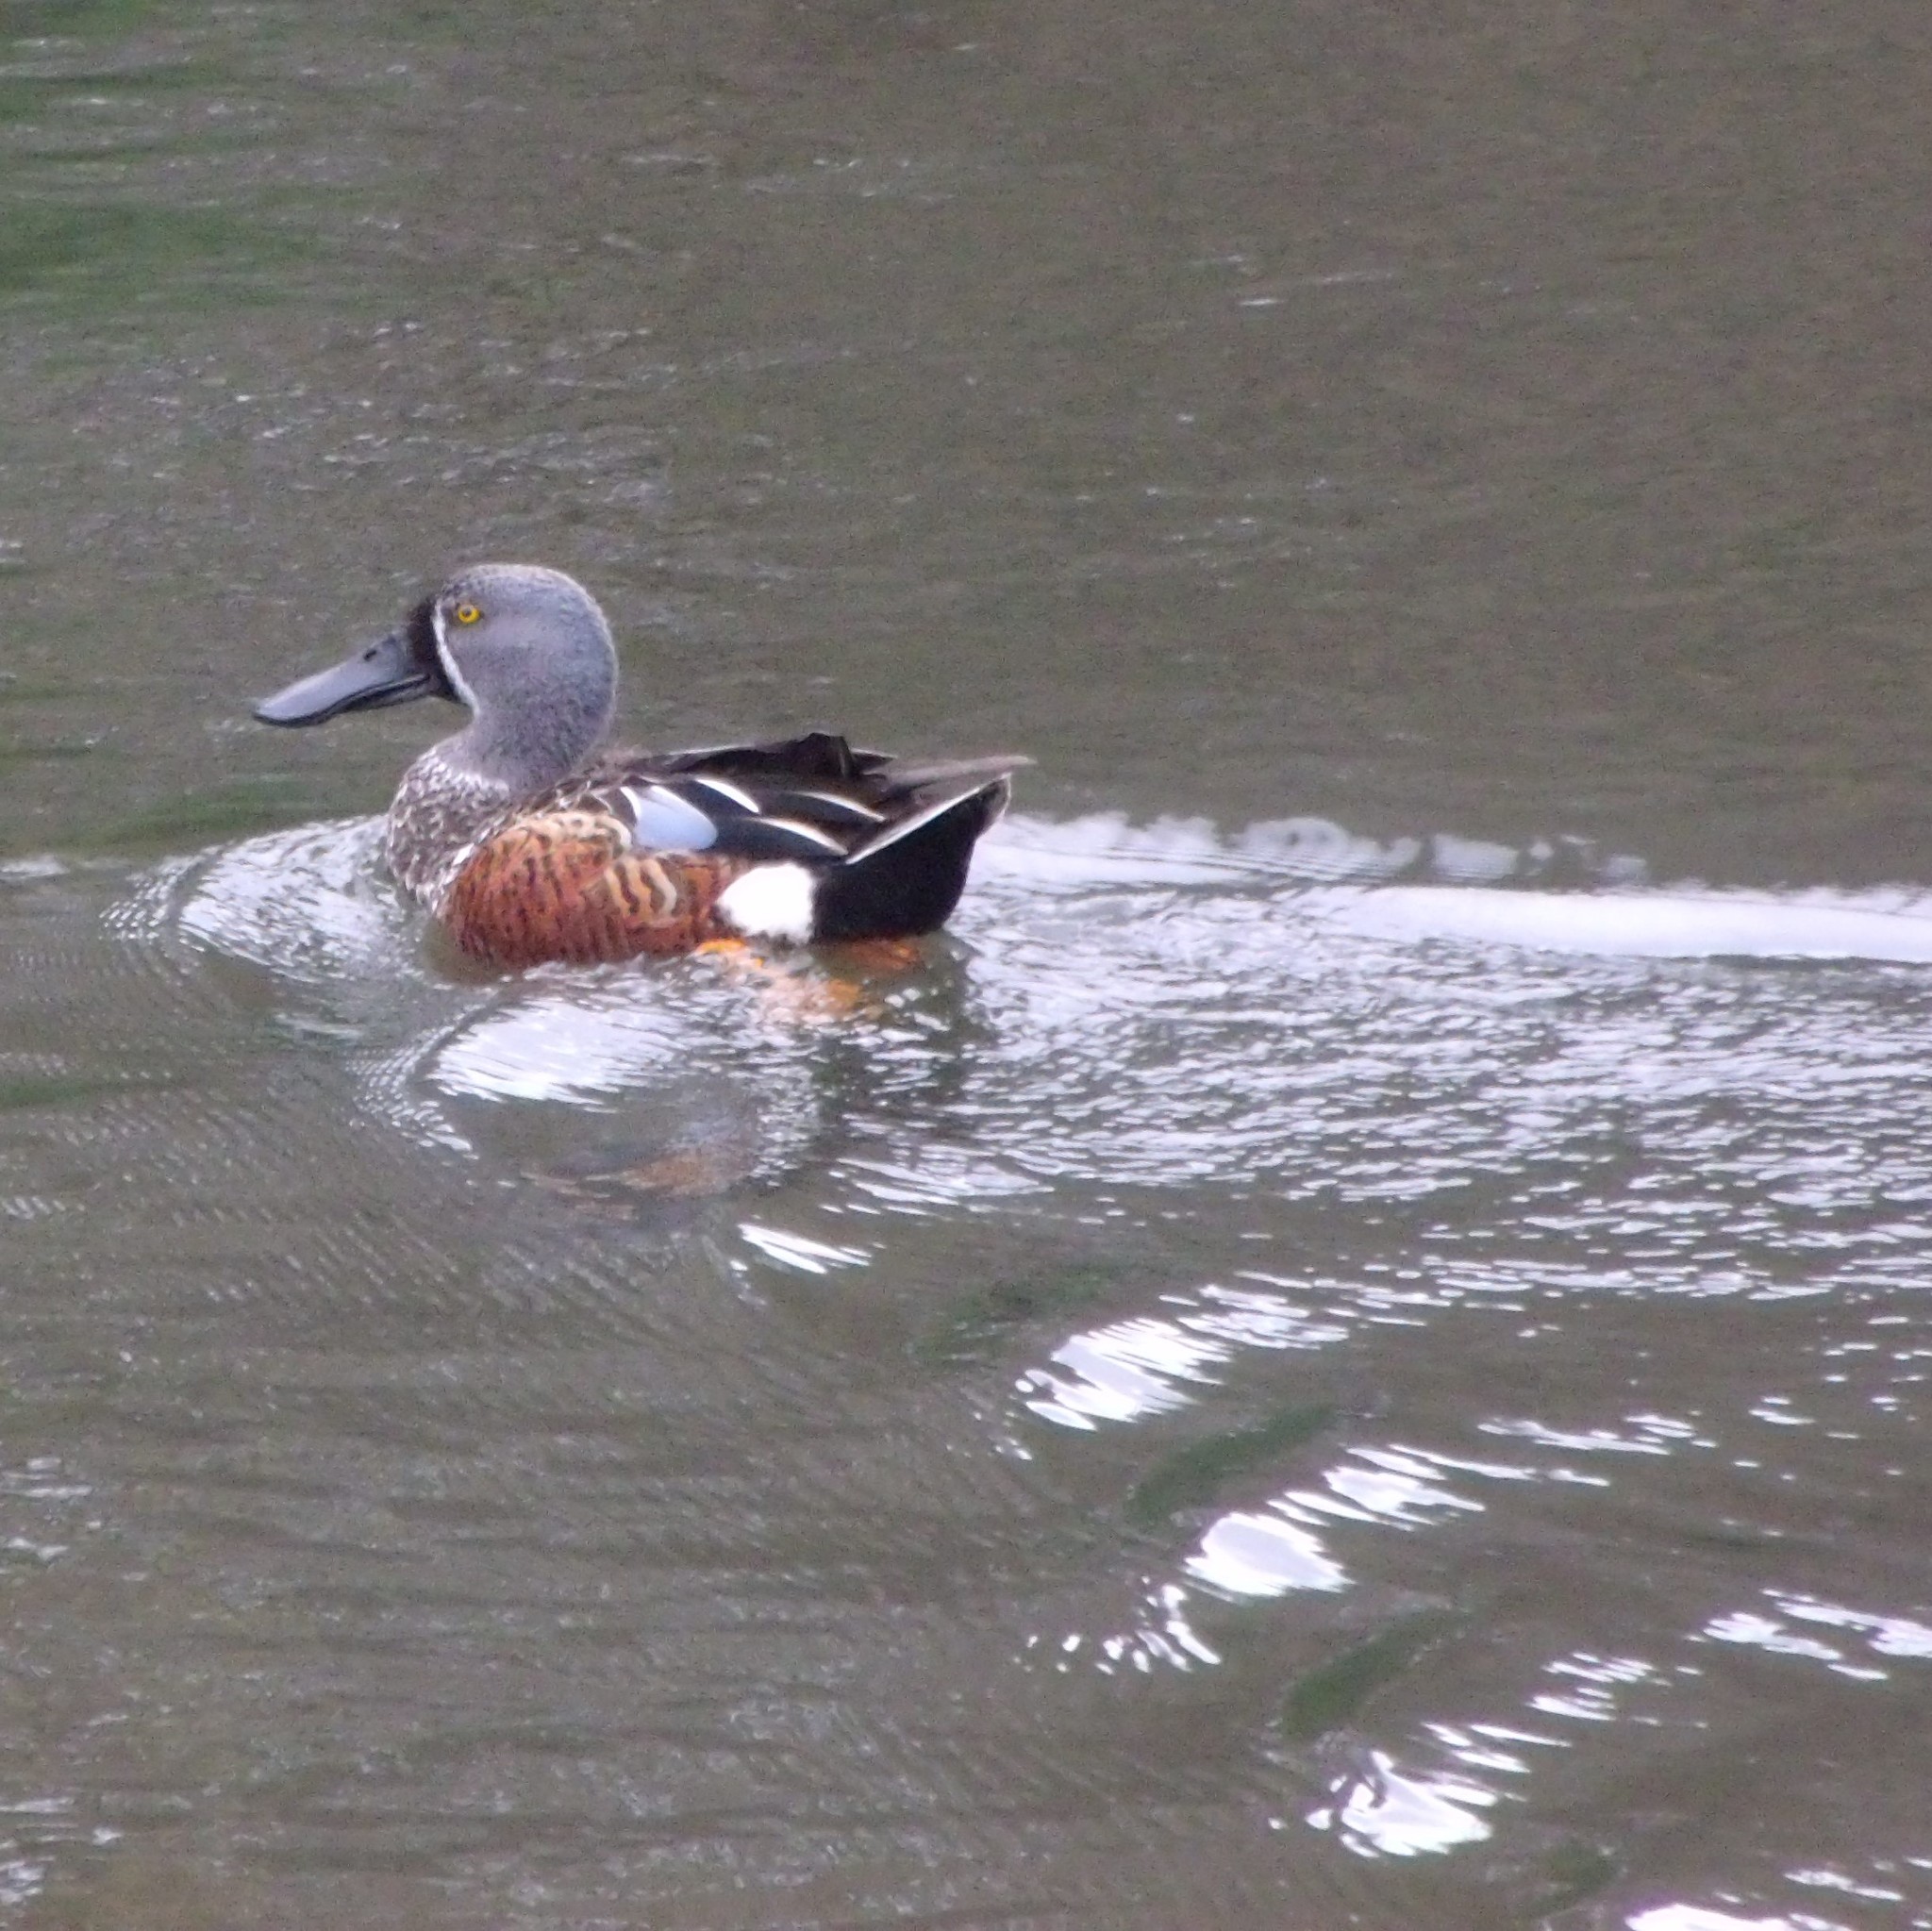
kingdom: Animalia
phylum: Chordata
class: Aves
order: Anseriformes
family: Anatidae
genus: Spatula
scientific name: Spatula rhynchotis
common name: Australian shoveler
